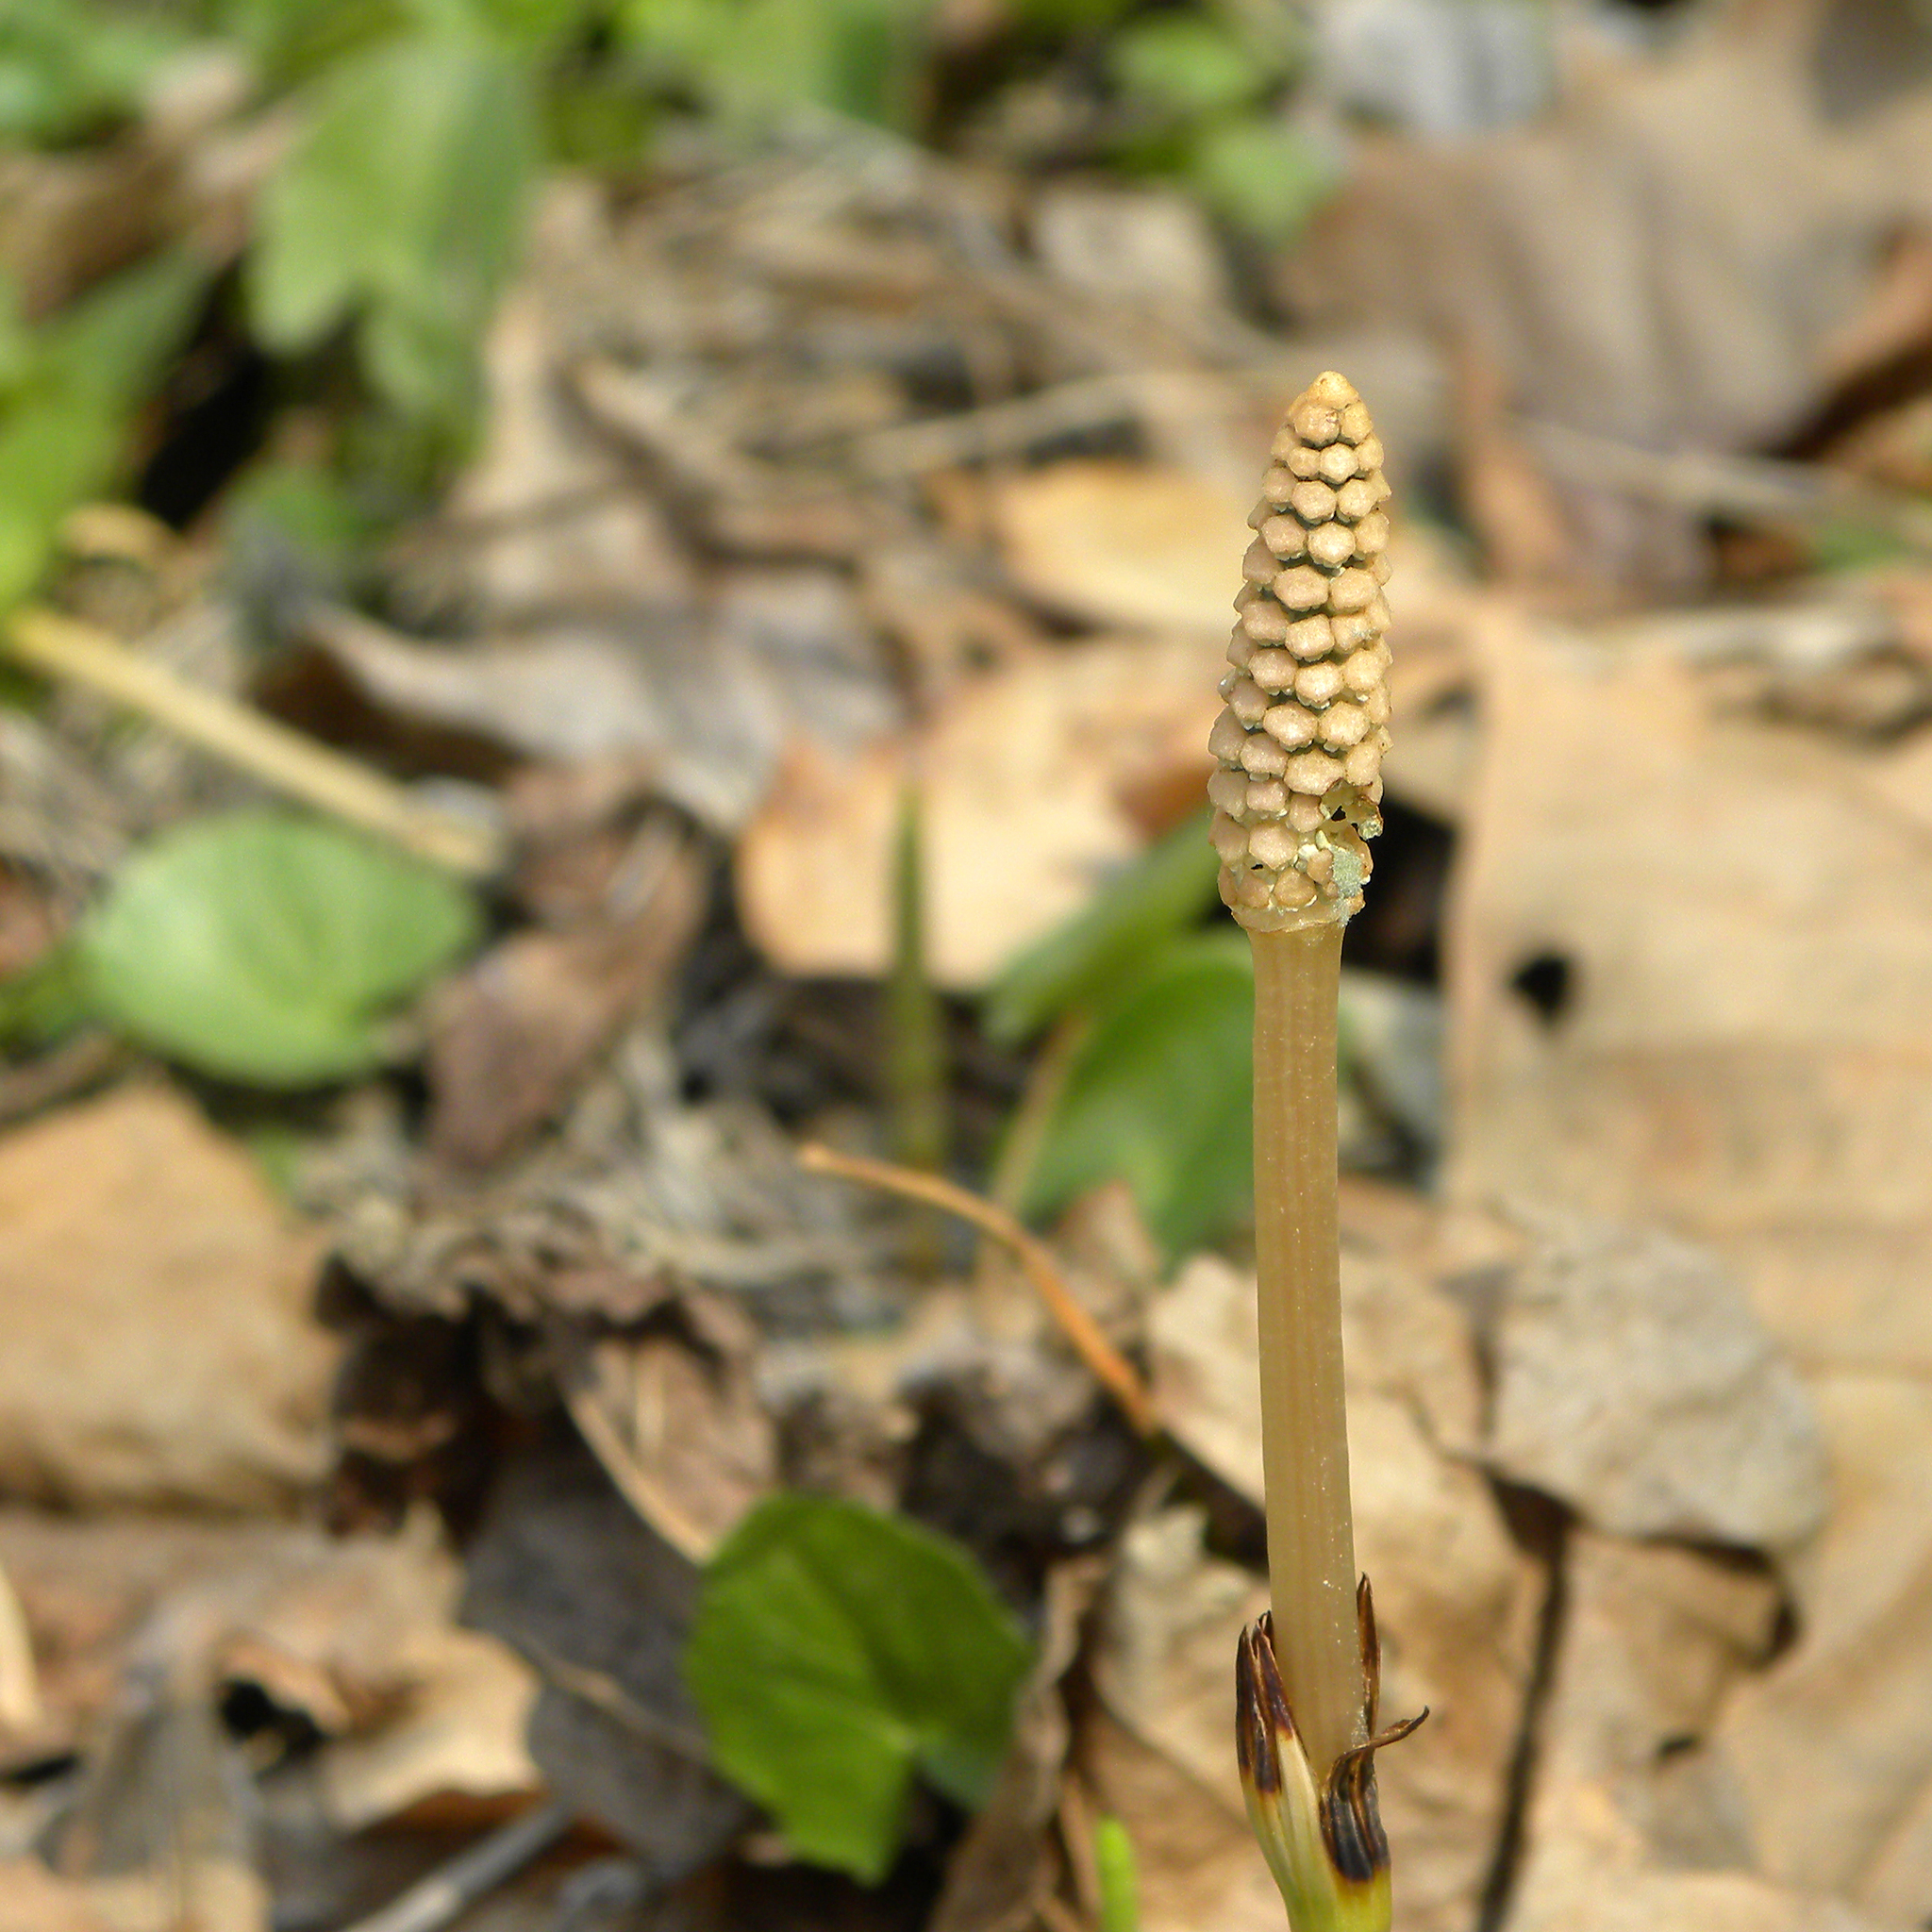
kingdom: Plantae
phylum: Tracheophyta
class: Polypodiopsida
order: Equisetales
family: Equisetaceae
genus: Equisetum
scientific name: Equisetum arvense
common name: Field horsetail
